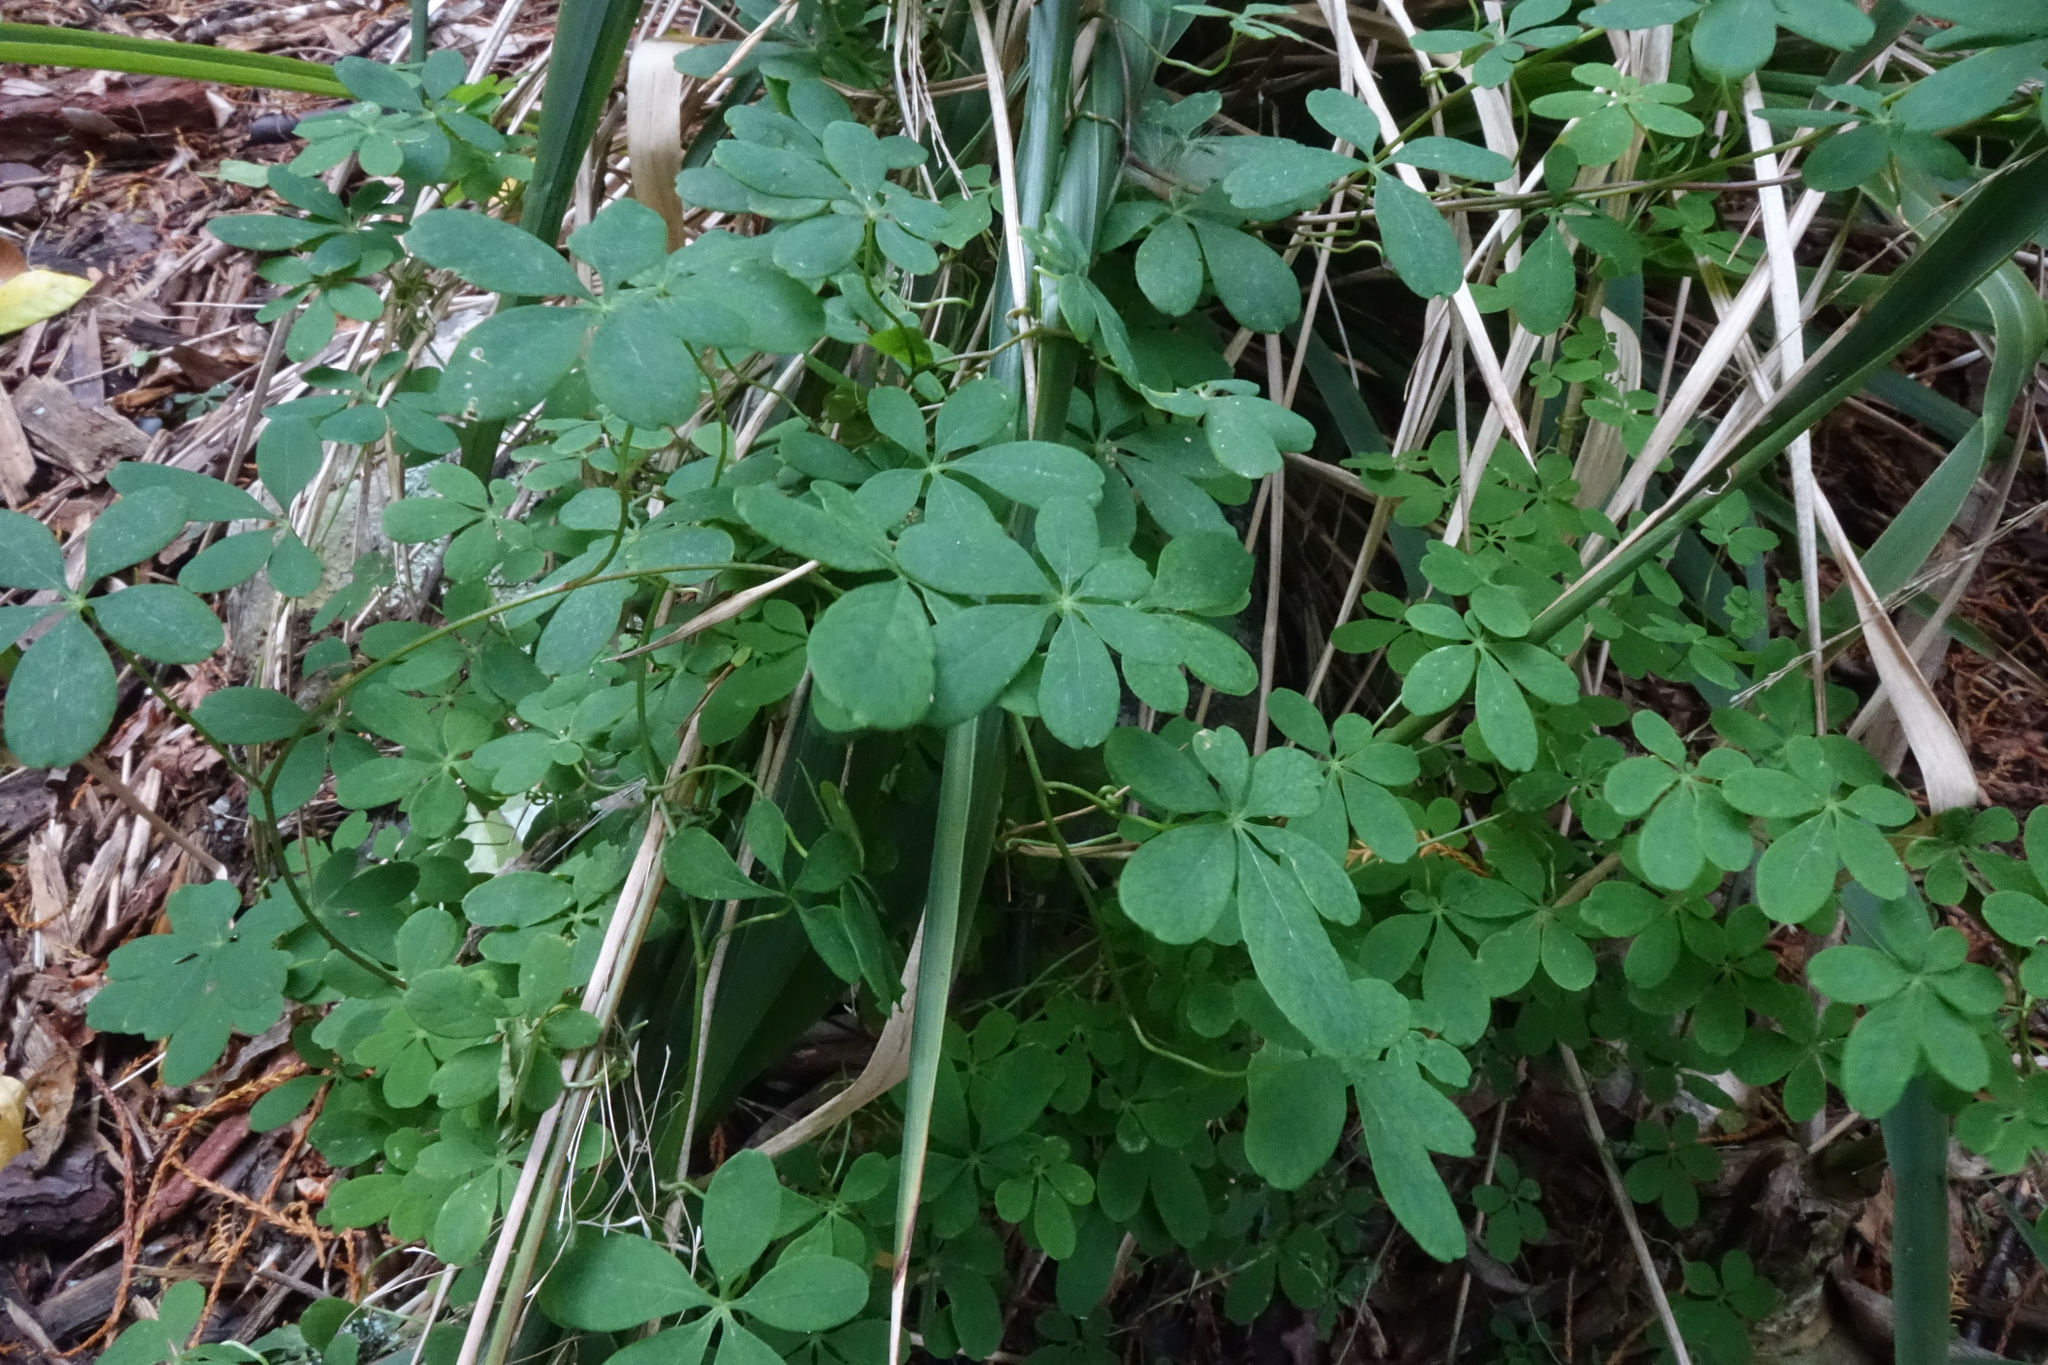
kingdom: Plantae
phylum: Tracheophyta
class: Magnoliopsida
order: Brassicales
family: Tropaeolaceae
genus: Tropaeolum
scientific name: Tropaeolum speciosum
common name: Flame nasturtium
